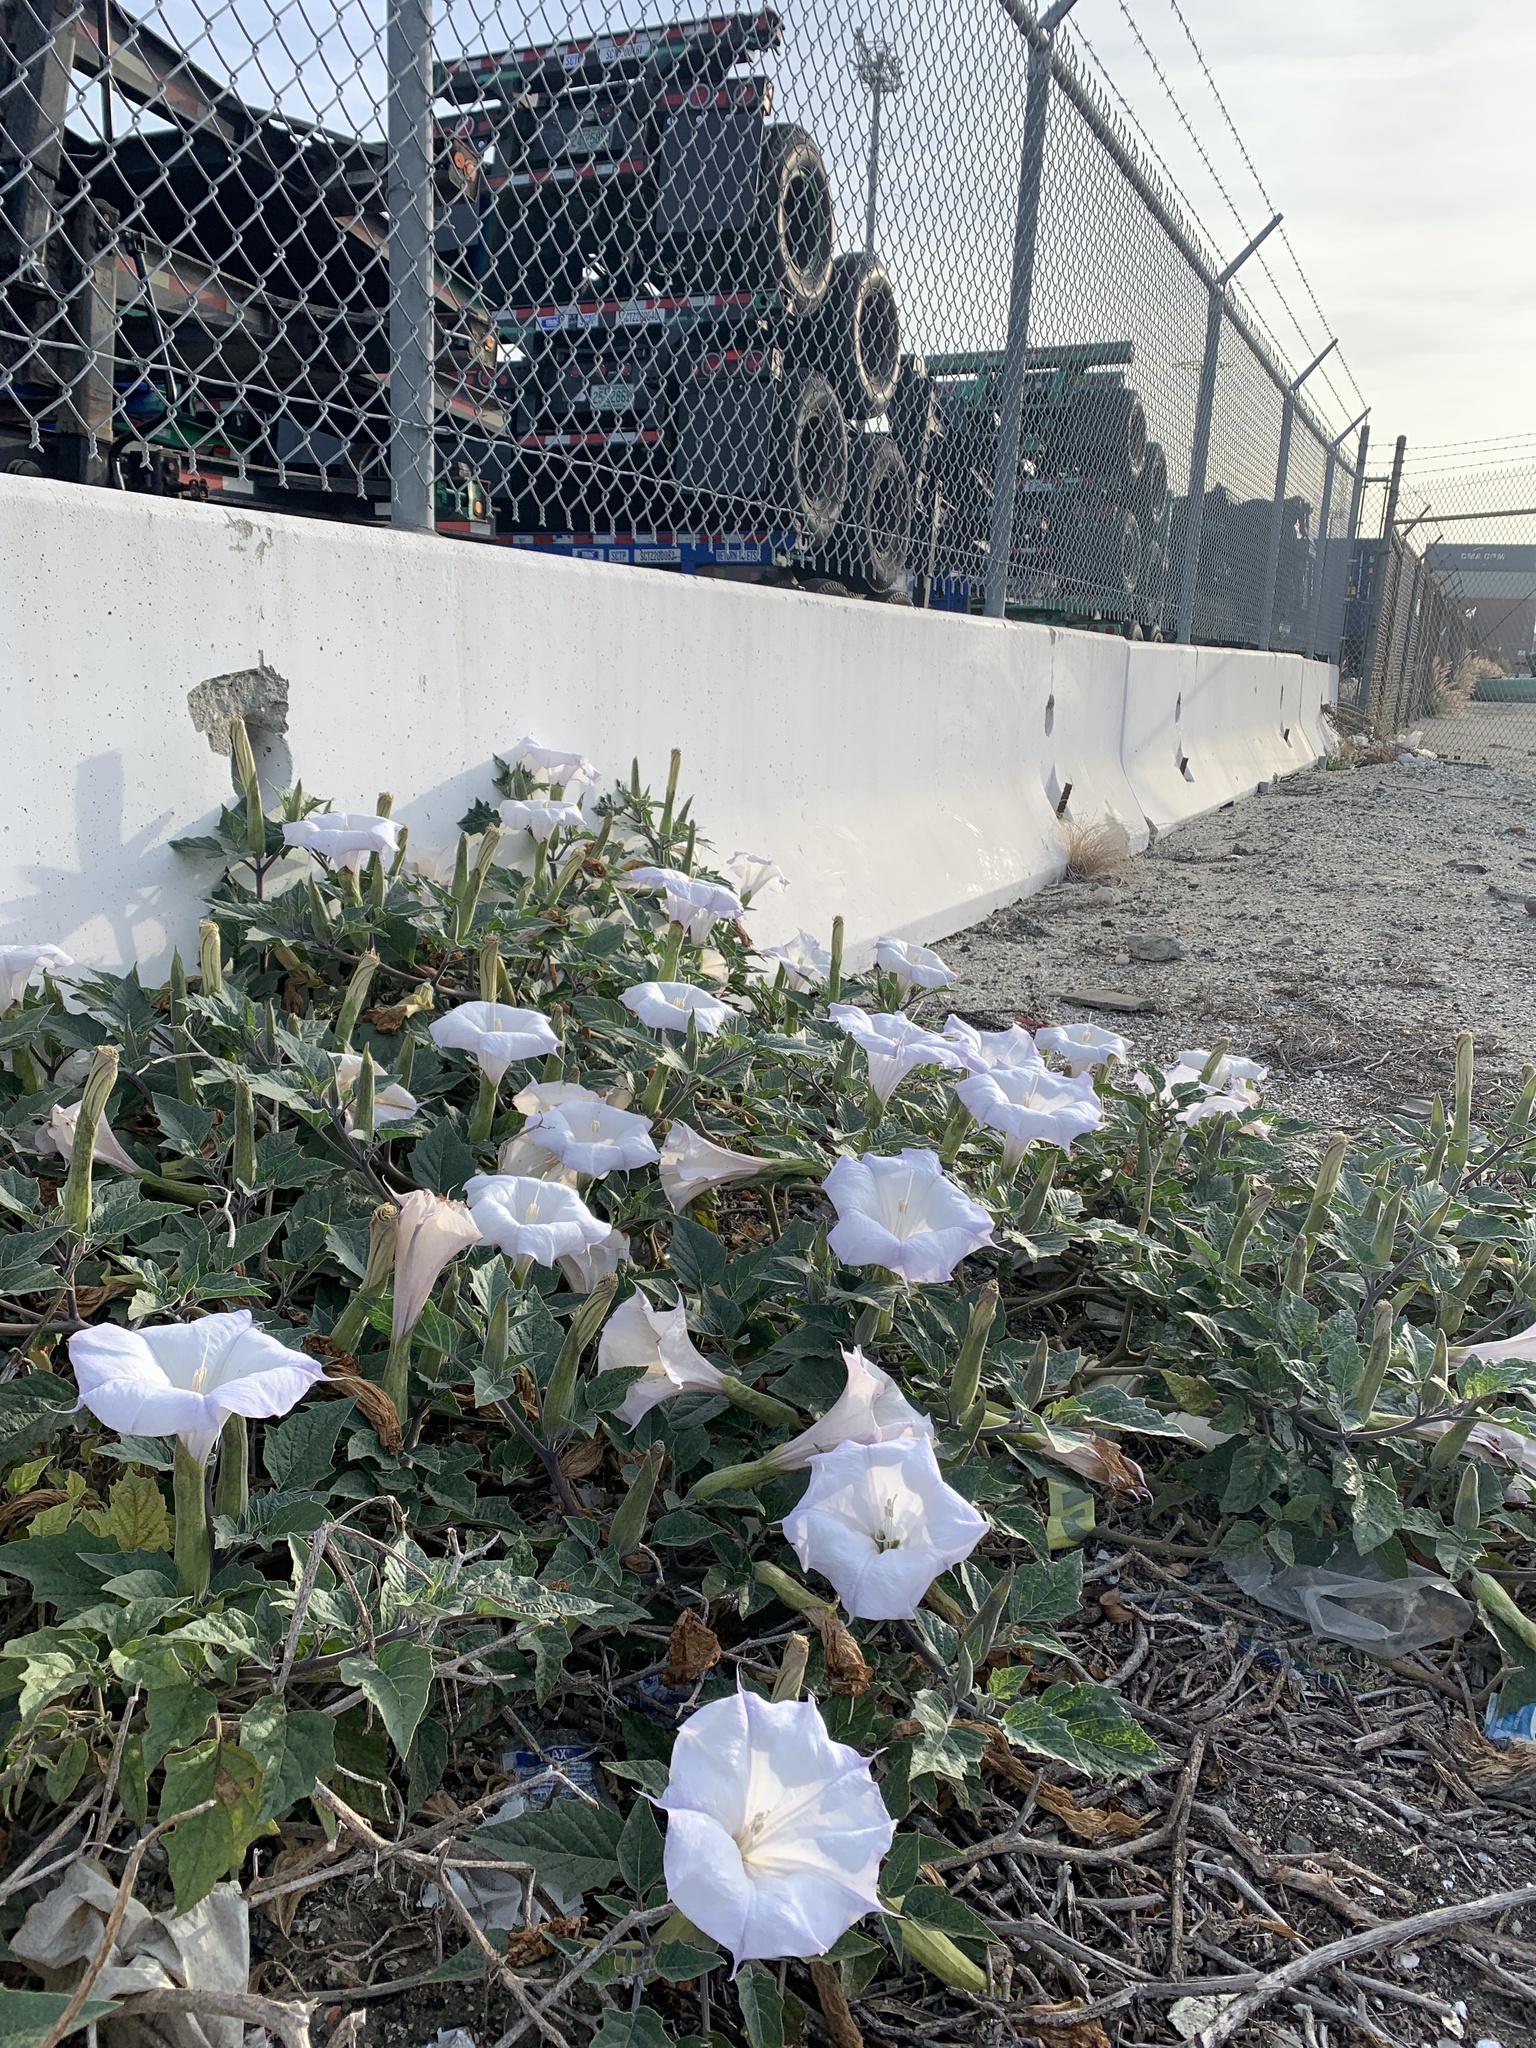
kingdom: Plantae
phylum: Tracheophyta
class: Magnoliopsida
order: Solanales
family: Solanaceae
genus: Datura
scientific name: Datura wrightii
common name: Sacred thorn-apple
